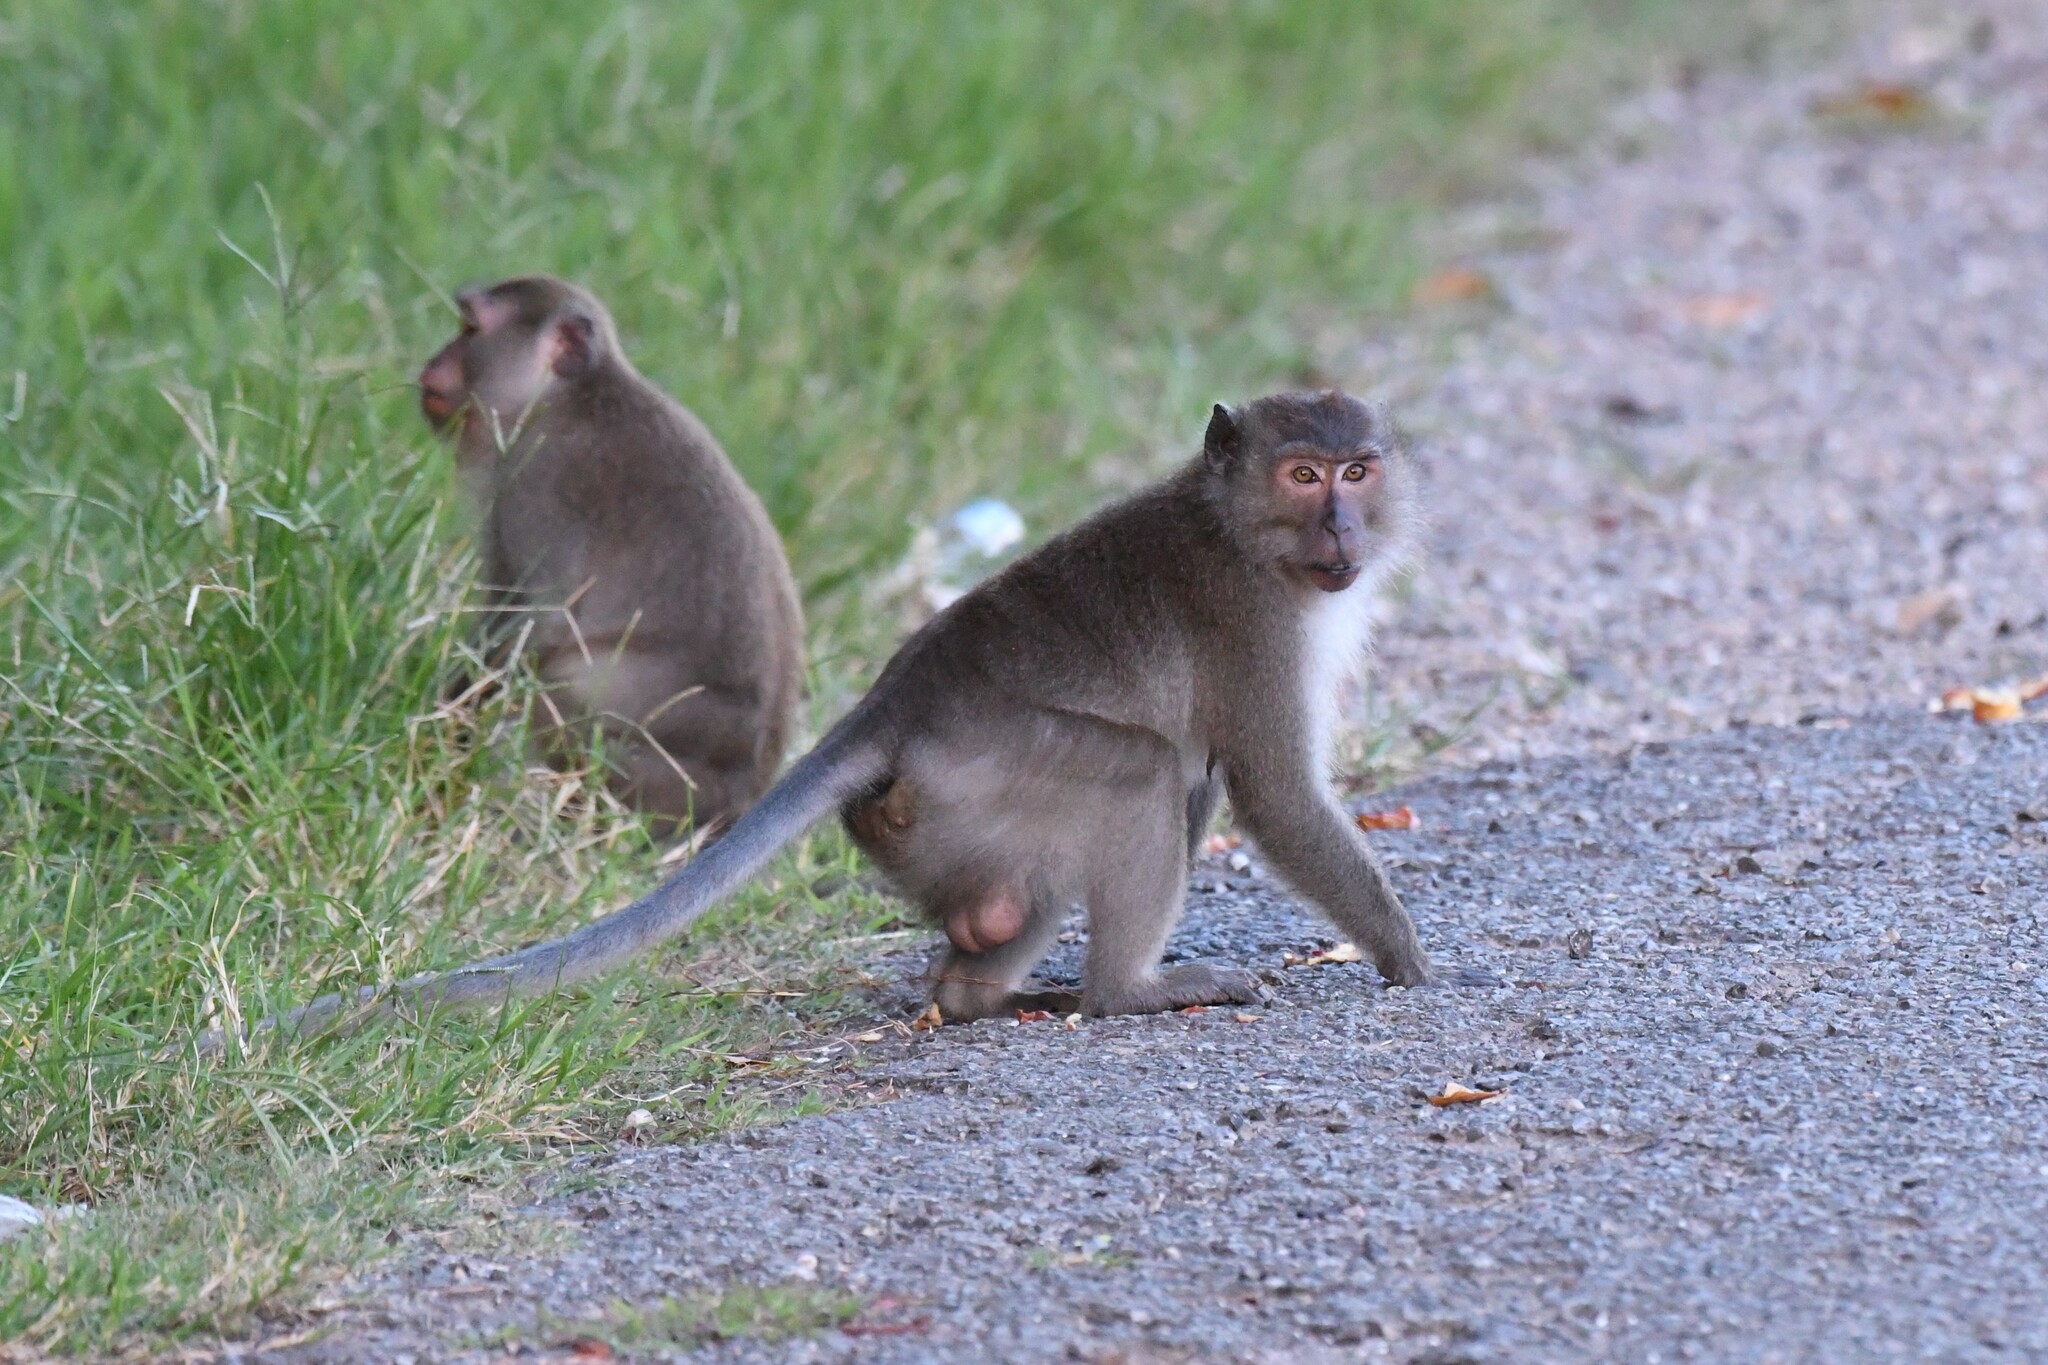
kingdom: Animalia
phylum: Chordata
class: Mammalia
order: Primates
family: Cercopithecidae
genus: Macaca
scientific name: Macaca fascicularis
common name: Crab-eating macaque
